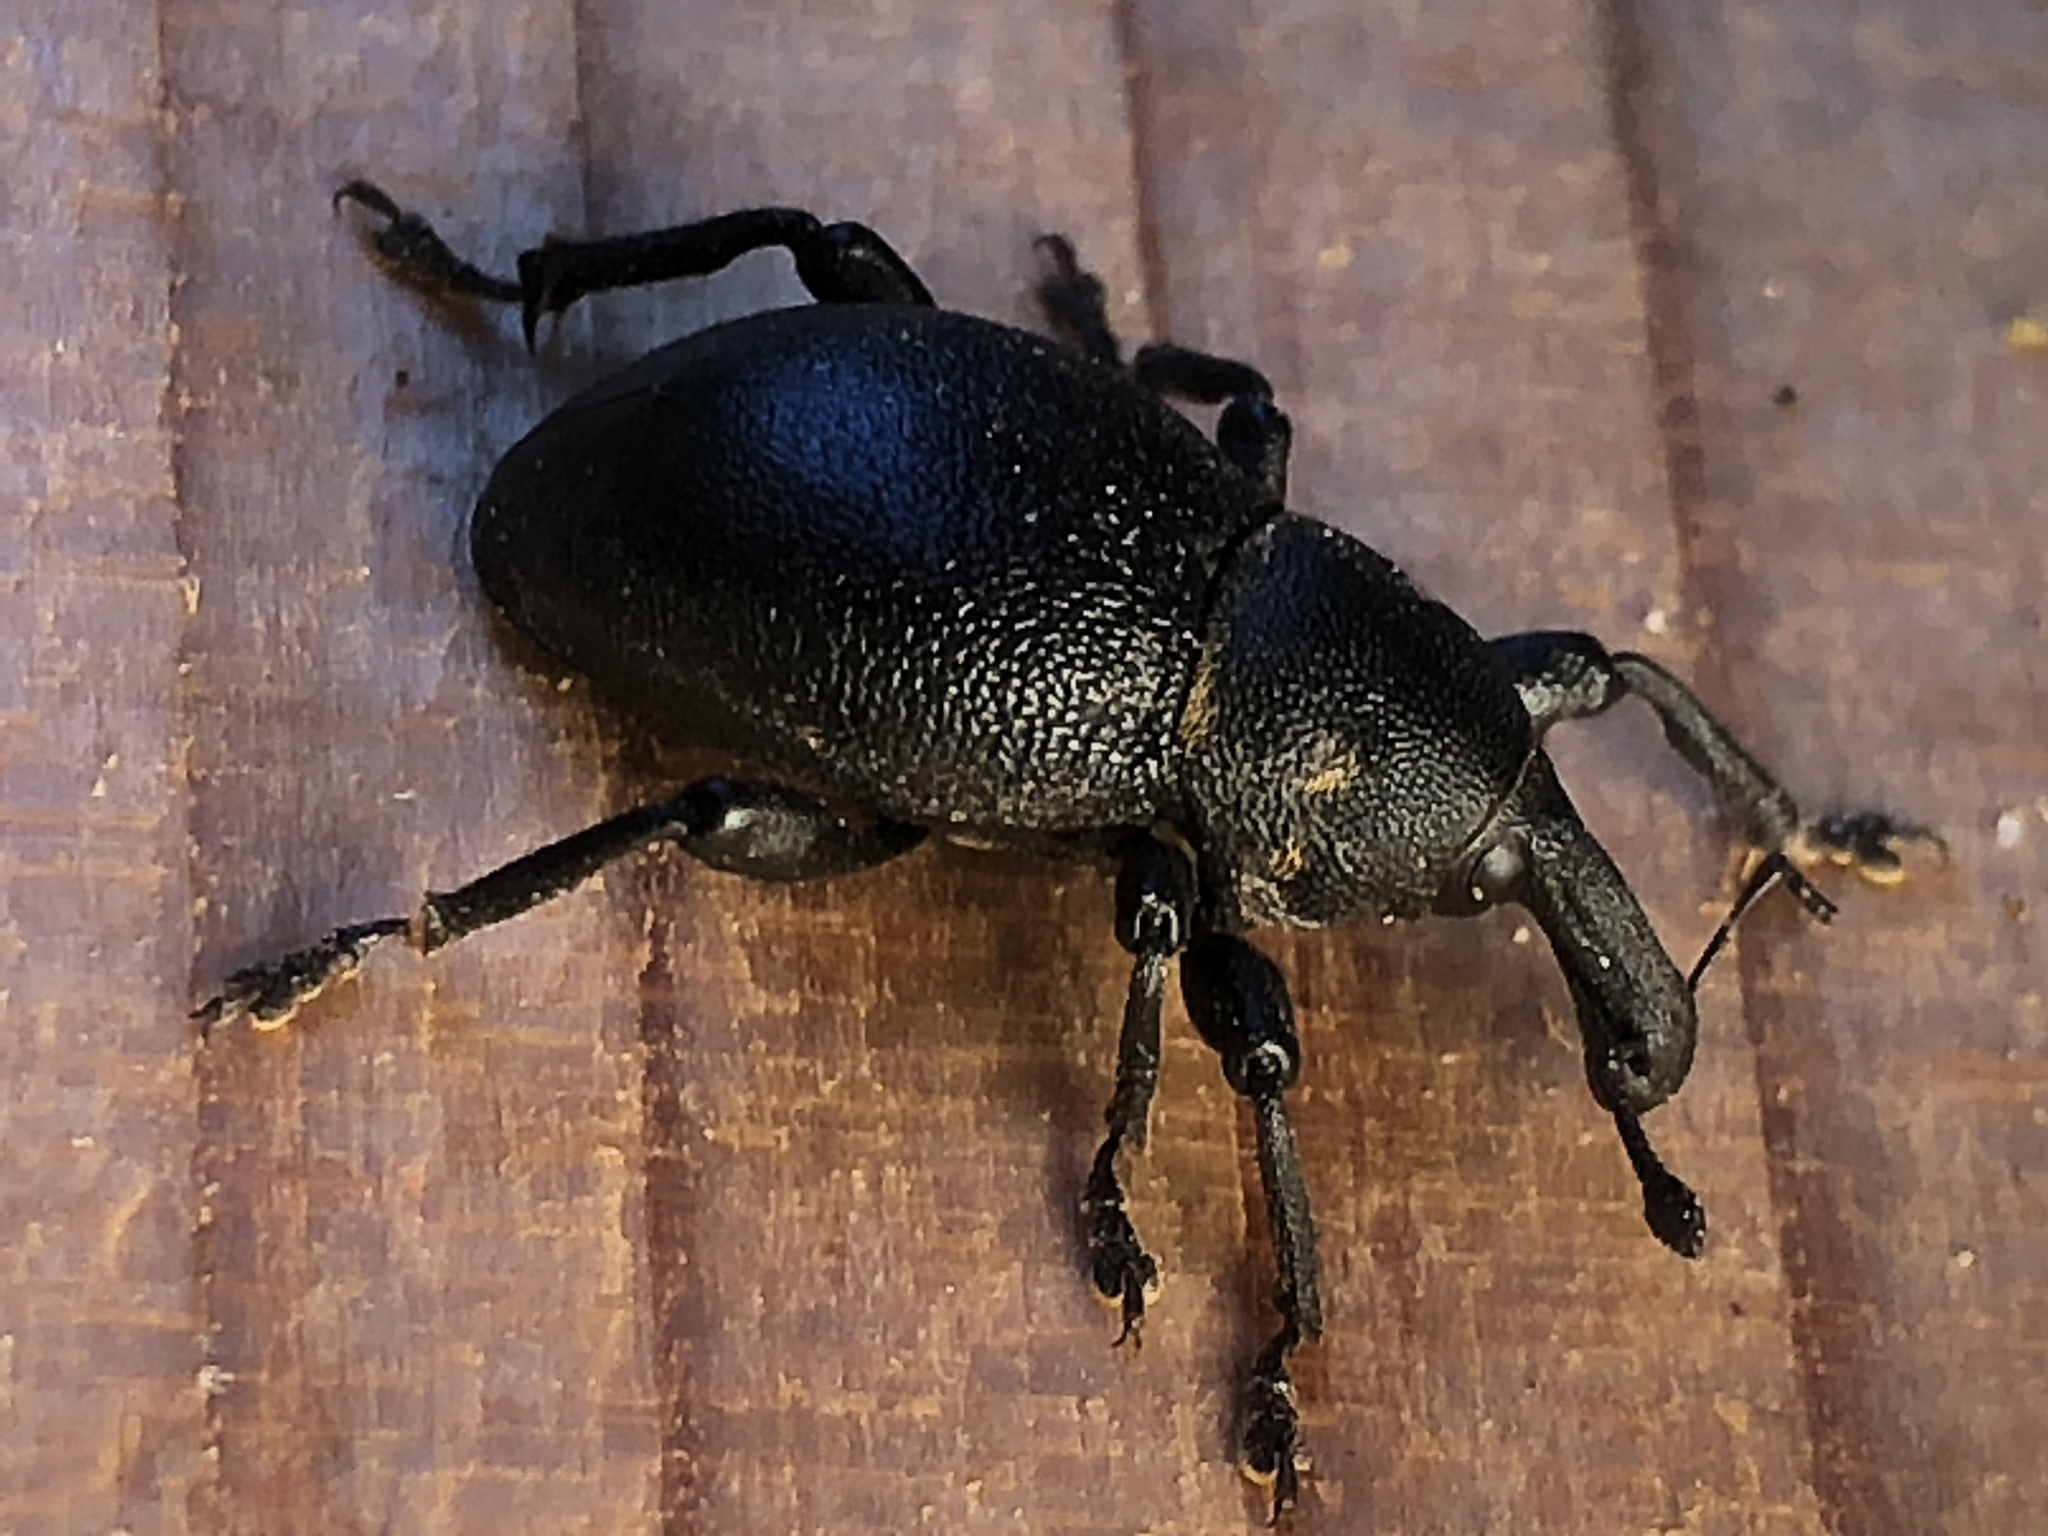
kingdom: Animalia
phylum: Arthropoda
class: Insecta
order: Coleoptera
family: Curculionidae
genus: Liparus
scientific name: Liparus coronatus
